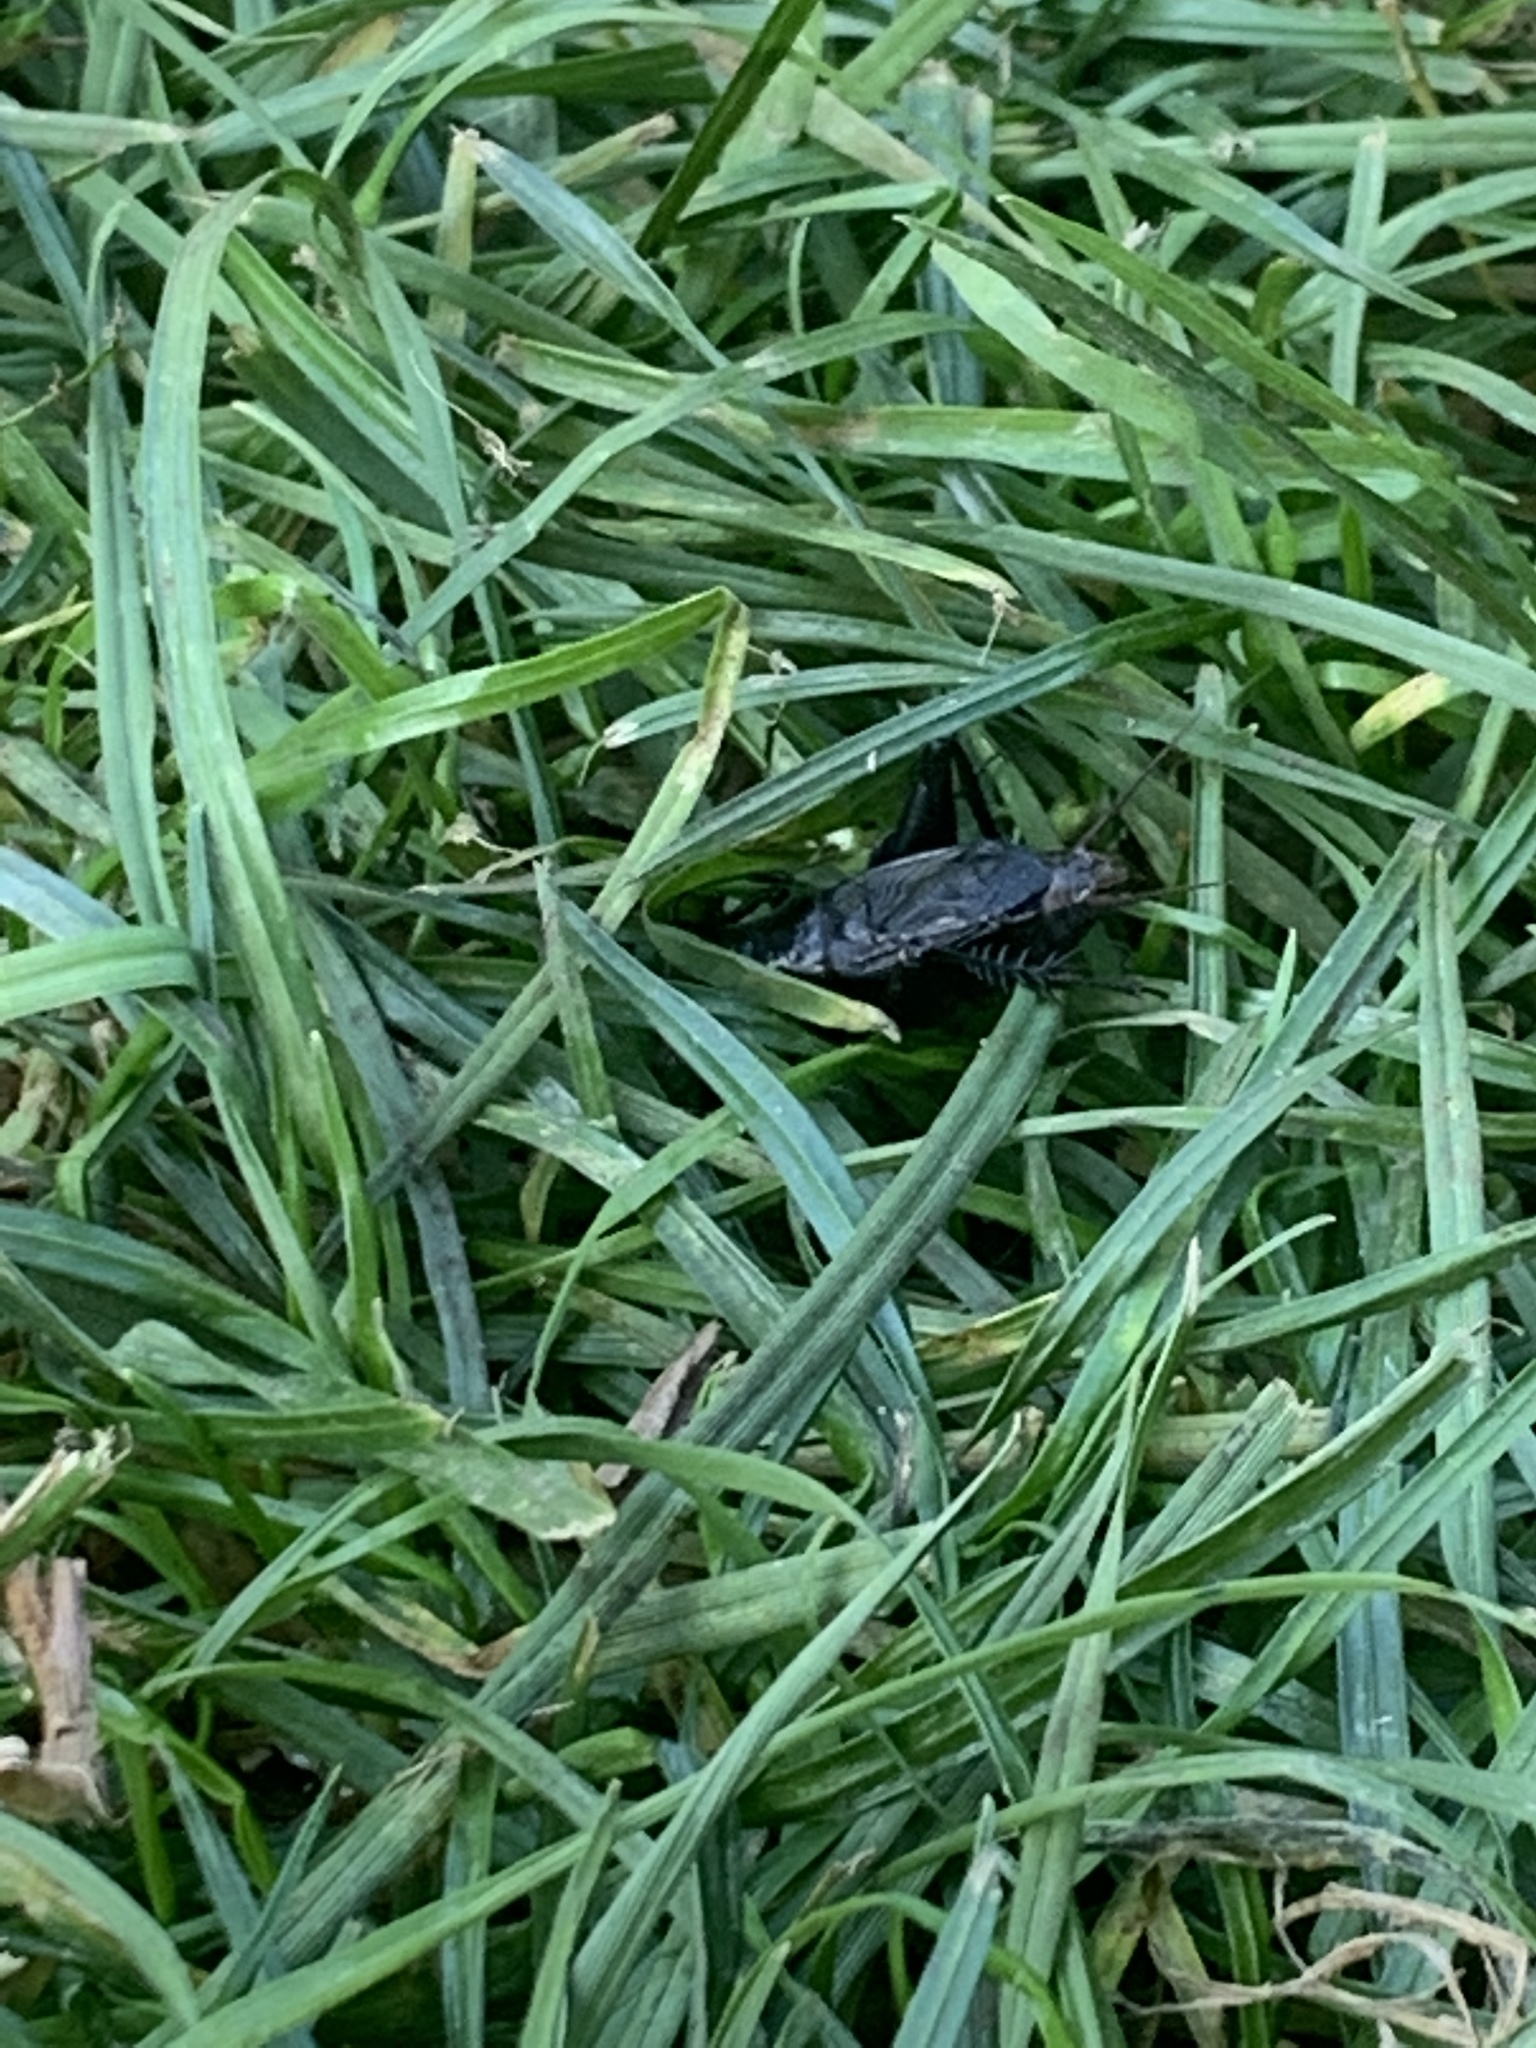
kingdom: Animalia
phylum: Arthropoda
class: Insecta
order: Orthoptera
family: Gryllidae
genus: Gryllus
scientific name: Gryllus pennsylvanicus
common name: Fall field cricket
